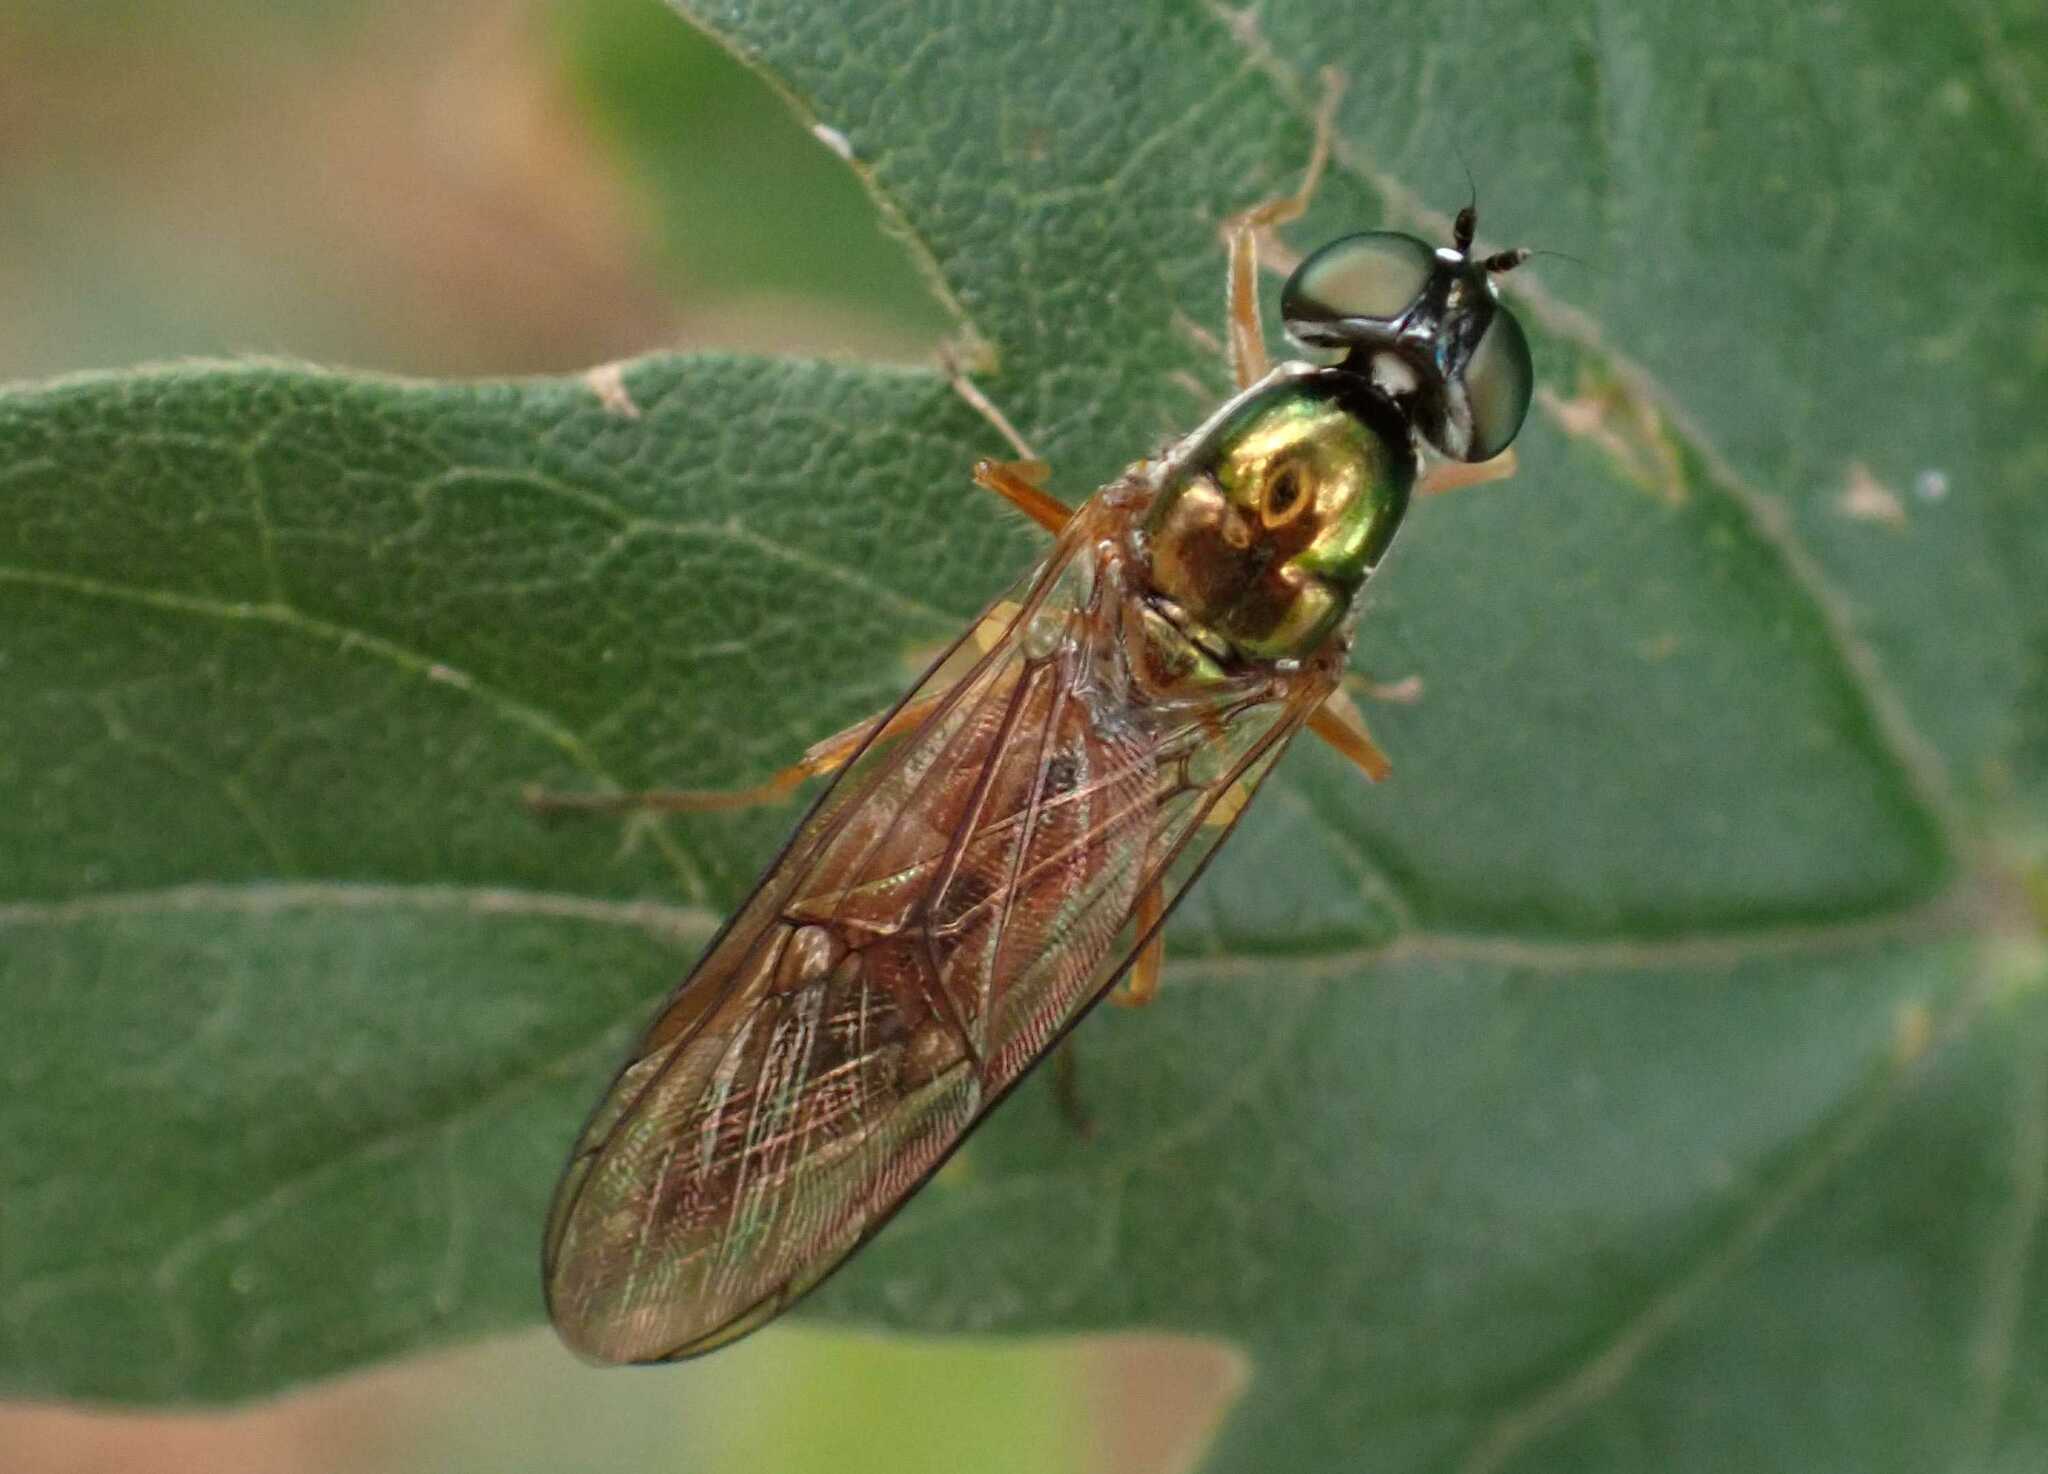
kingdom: Animalia
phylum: Arthropoda
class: Insecta
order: Diptera
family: Stratiomyidae
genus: Sargus
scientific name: Sargus bipunctatus
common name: Twin-spot centurion
